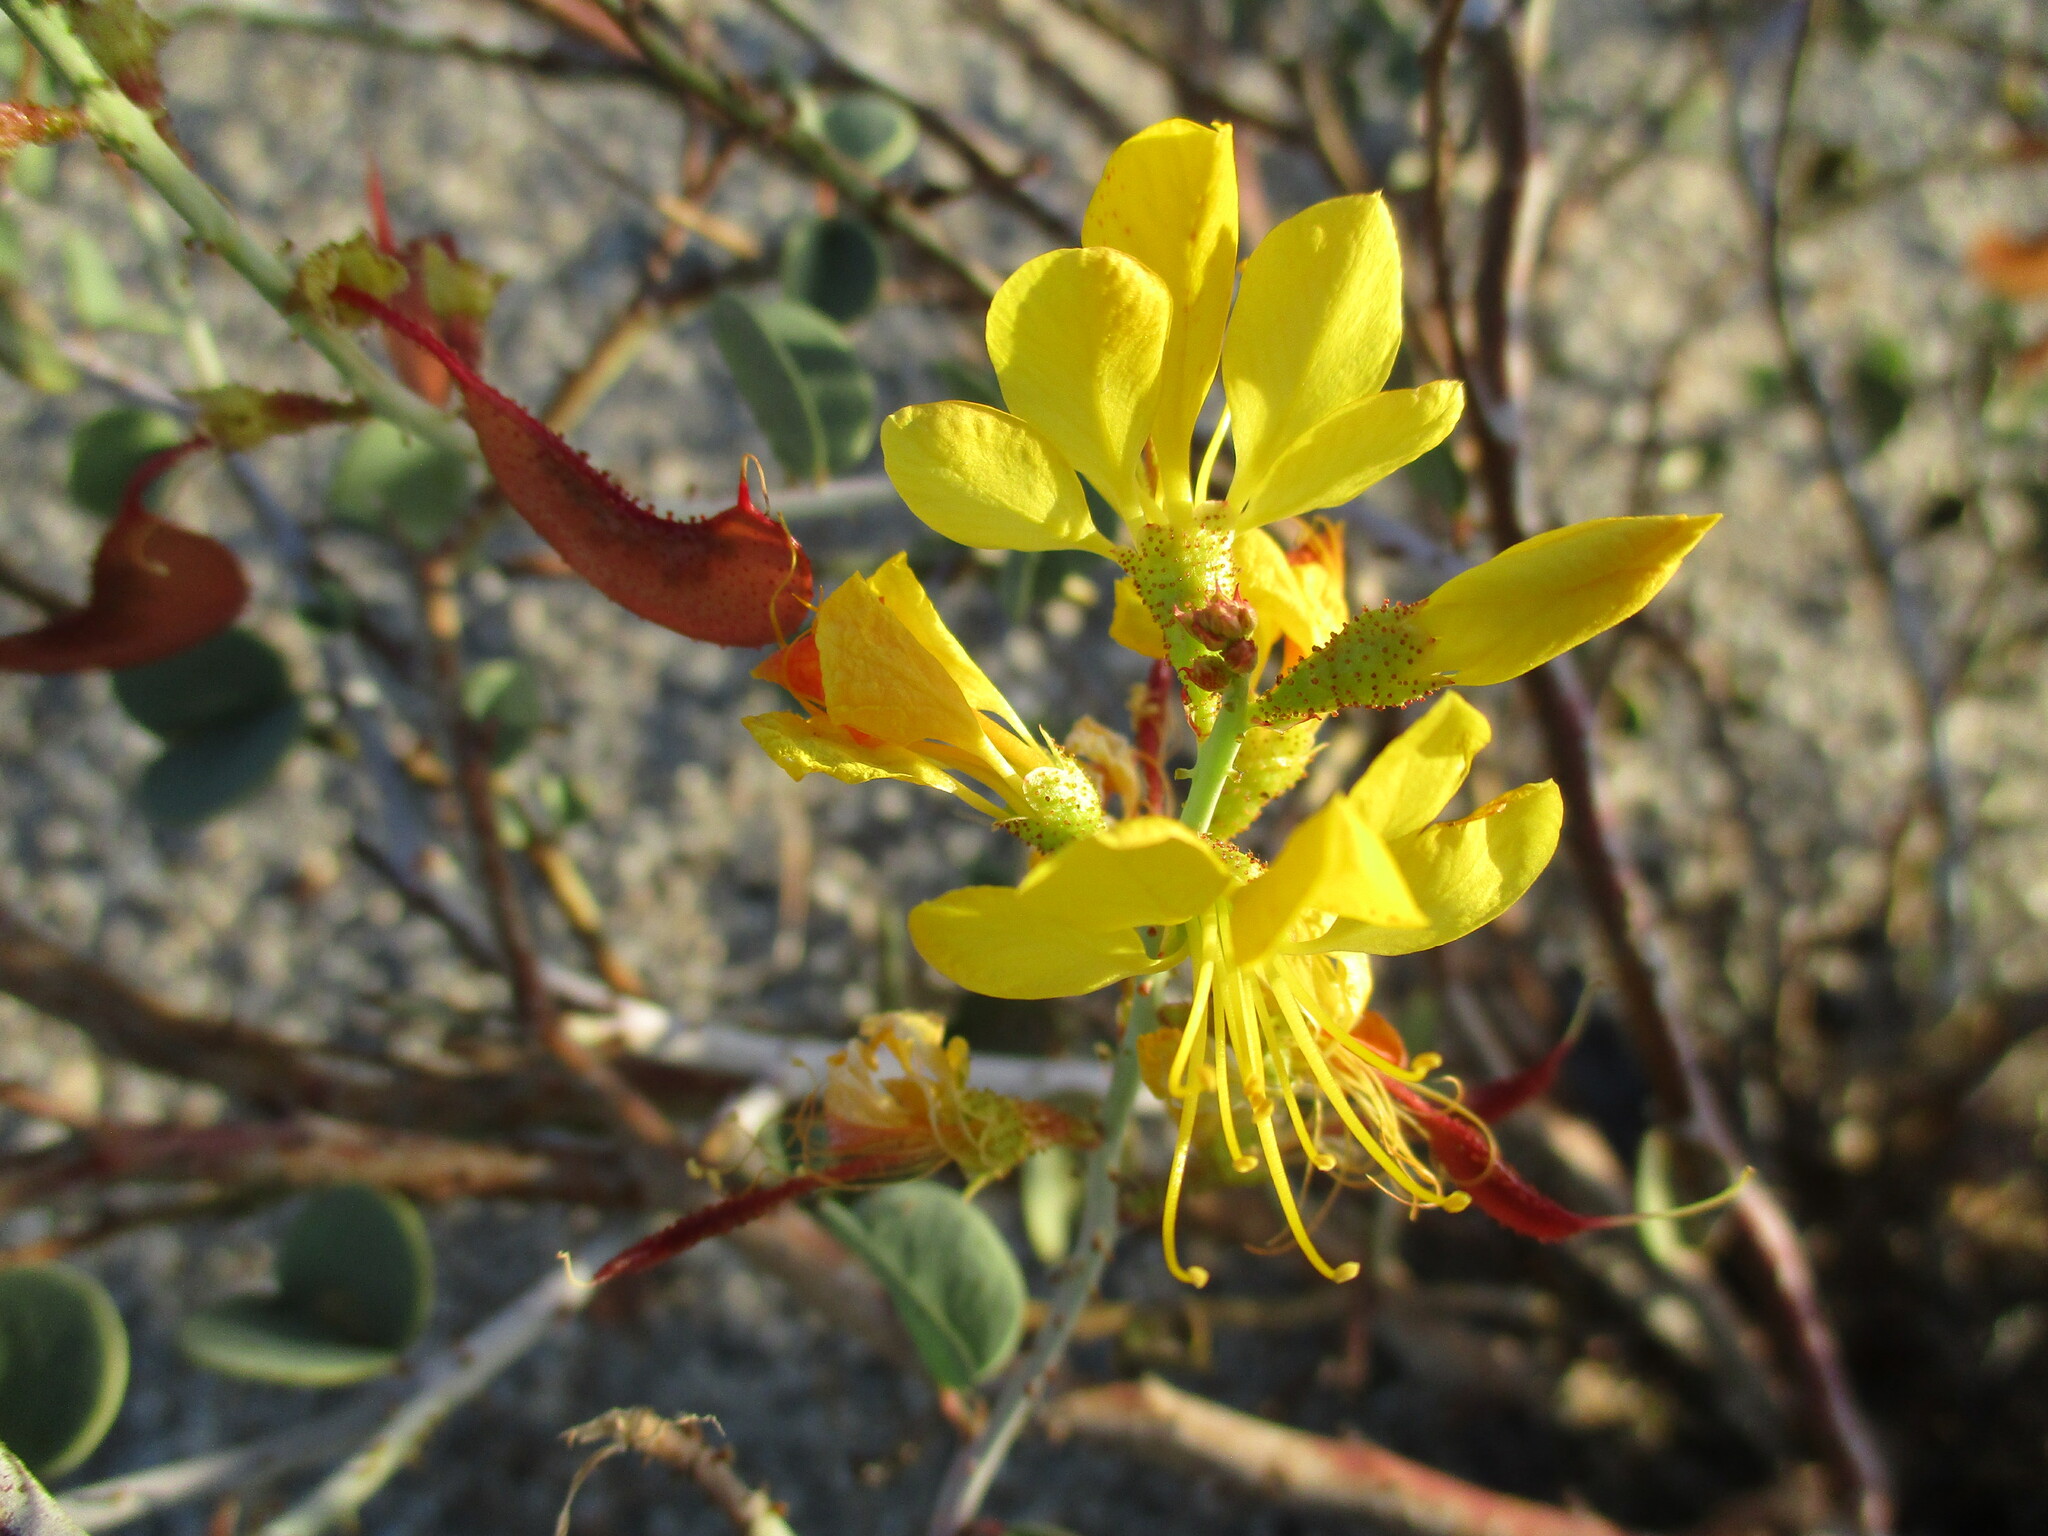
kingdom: Plantae
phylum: Tracheophyta
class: Magnoliopsida
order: Fabales
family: Fabaceae
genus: Adenolobus
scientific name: Adenolobus pechuelii
